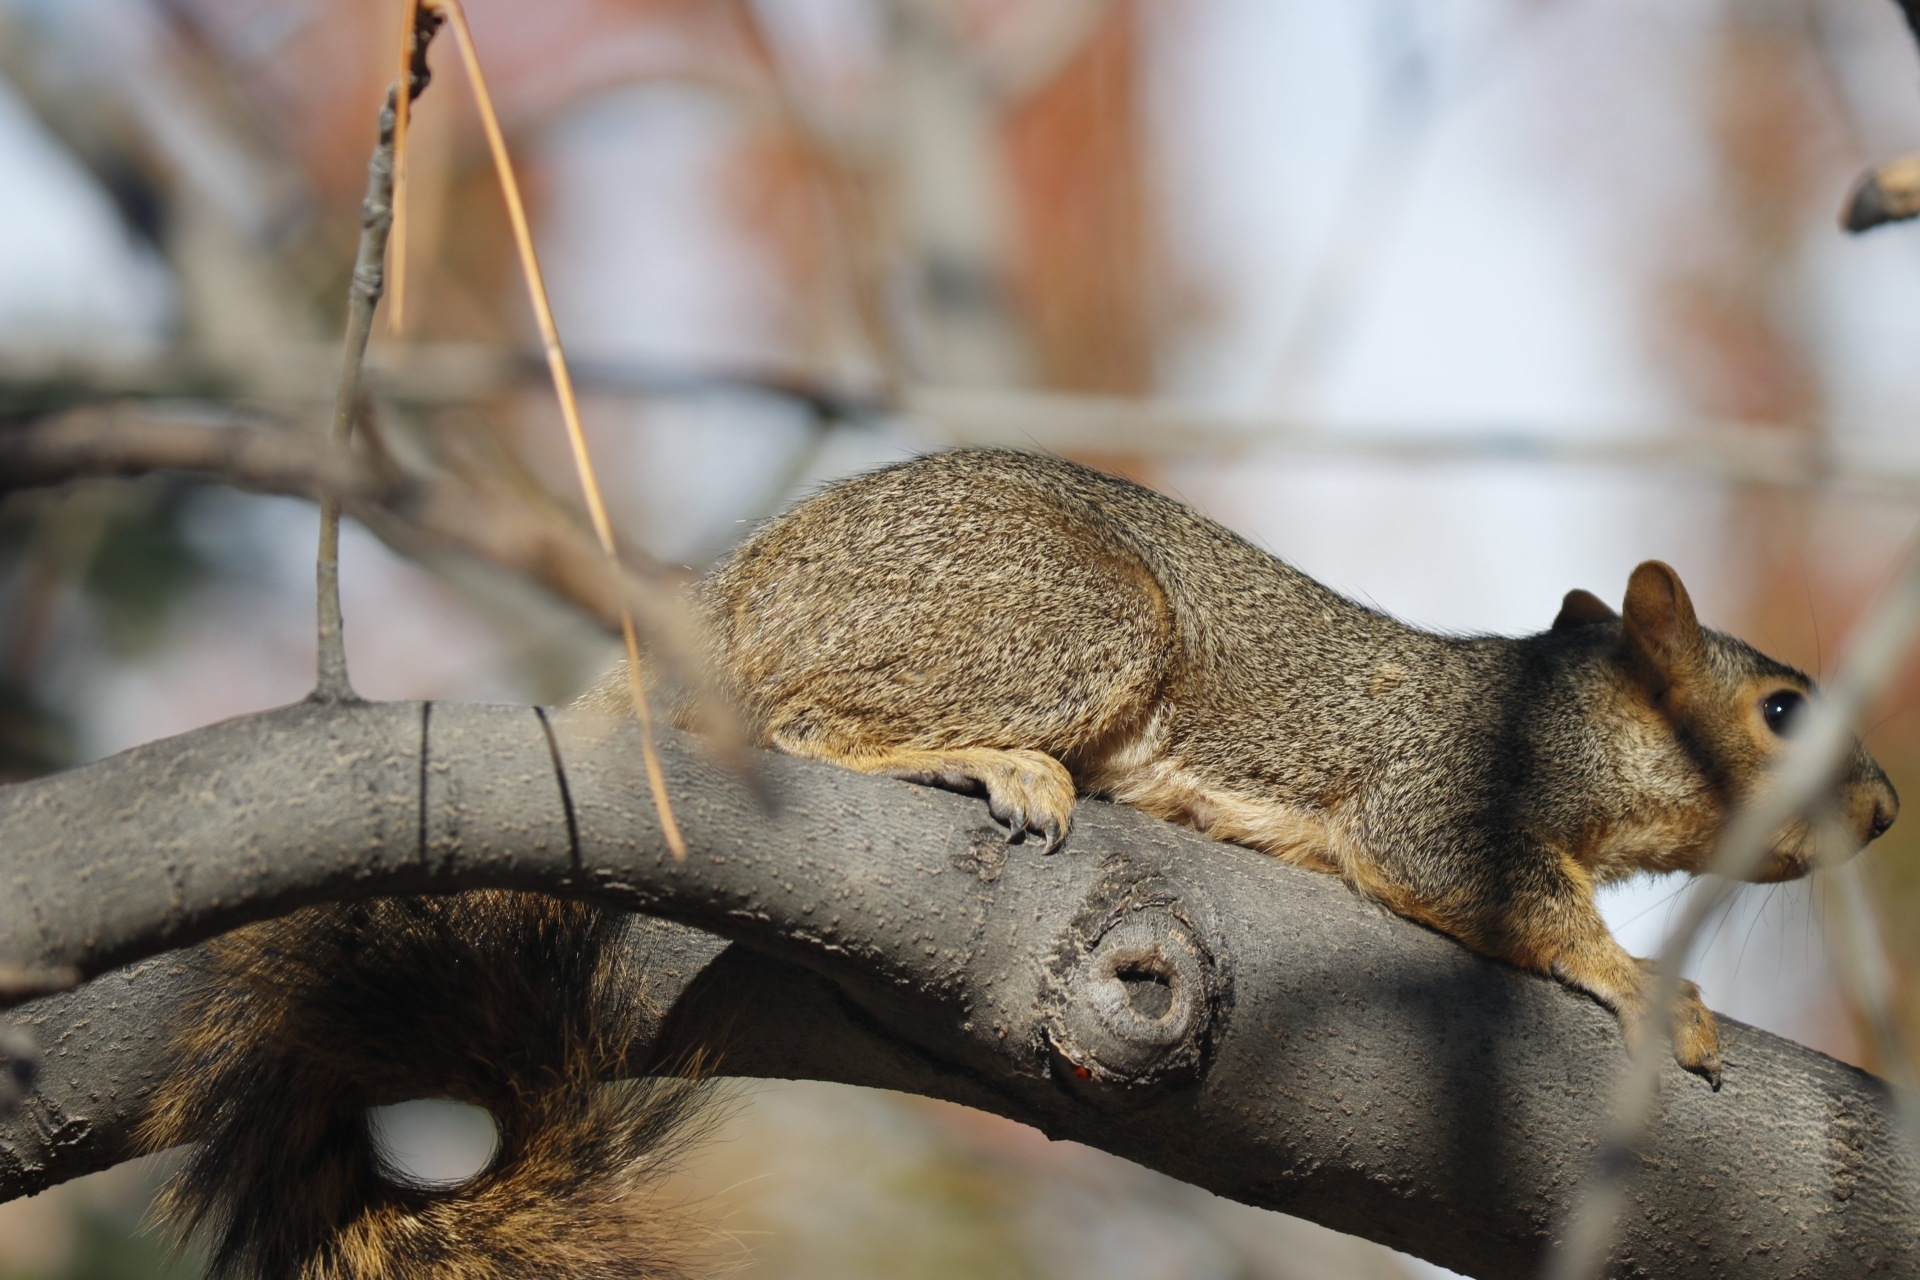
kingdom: Animalia
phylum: Chordata
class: Mammalia
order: Rodentia
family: Sciuridae
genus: Sciurus
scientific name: Sciurus niger
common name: Fox squirrel
